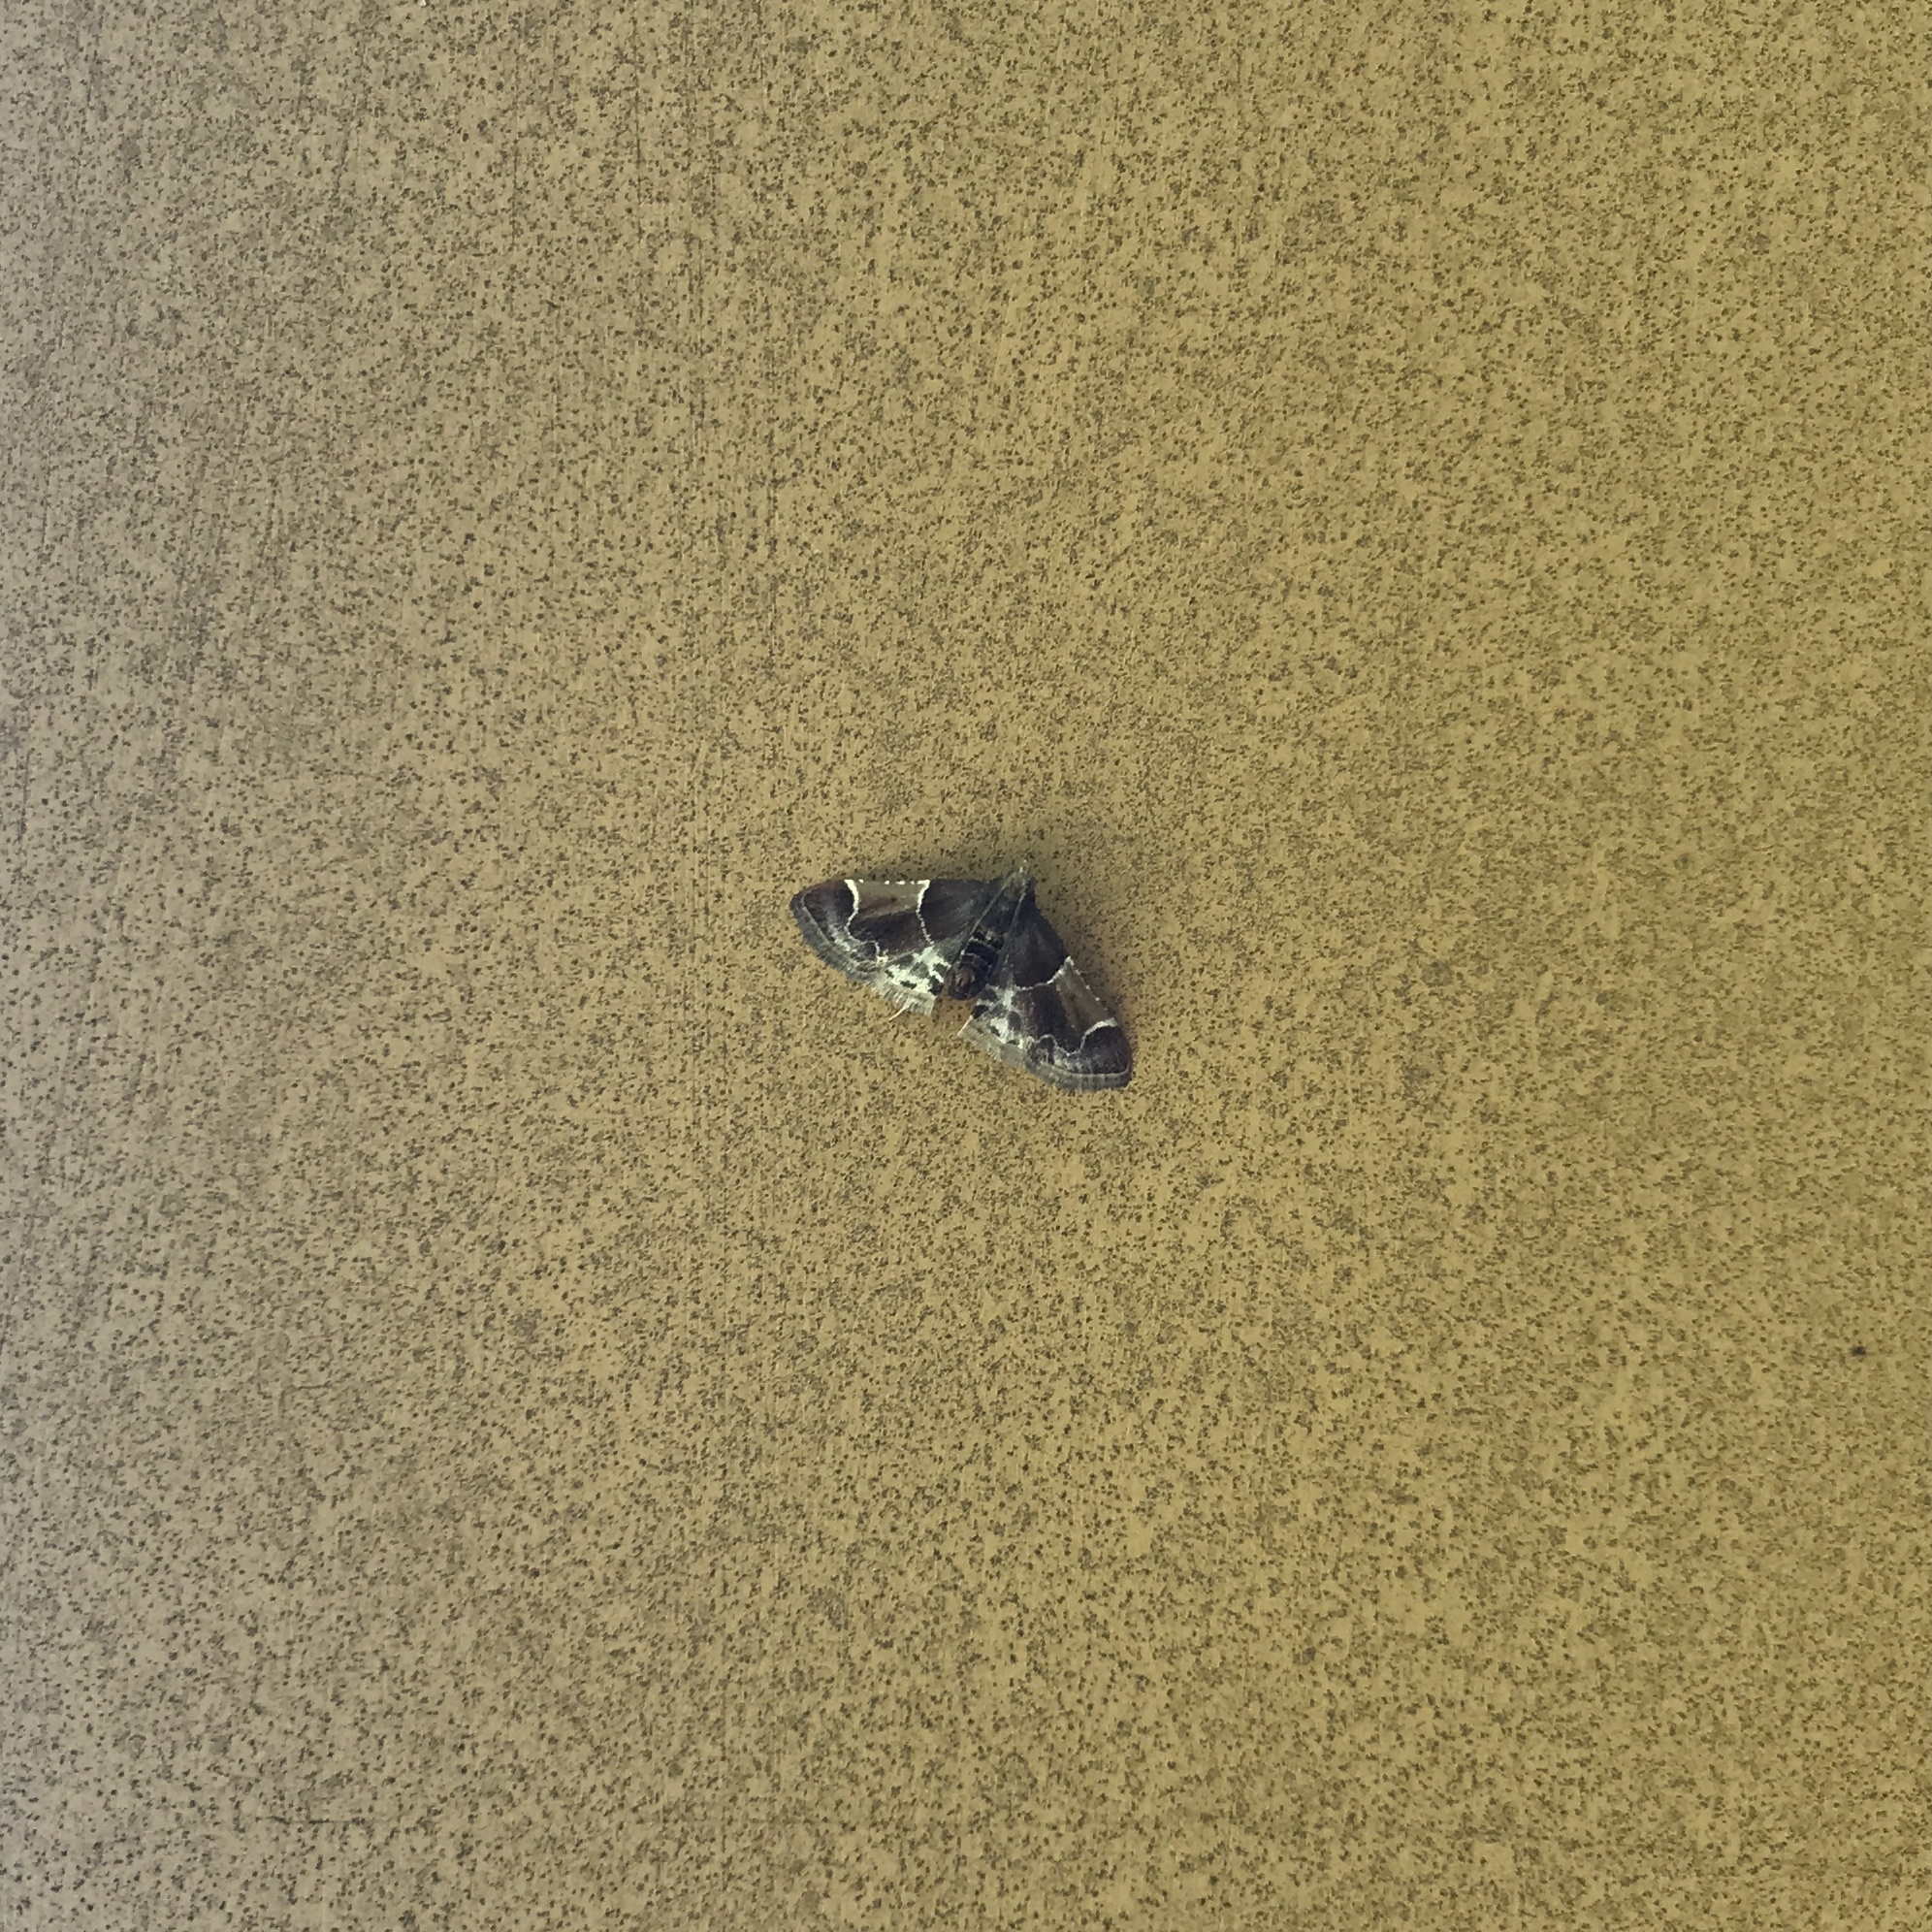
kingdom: Animalia
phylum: Arthropoda
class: Insecta
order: Lepidoptera
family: Pyralidae
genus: Pyralis
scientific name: Pyralis farinalis
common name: Meal moth
